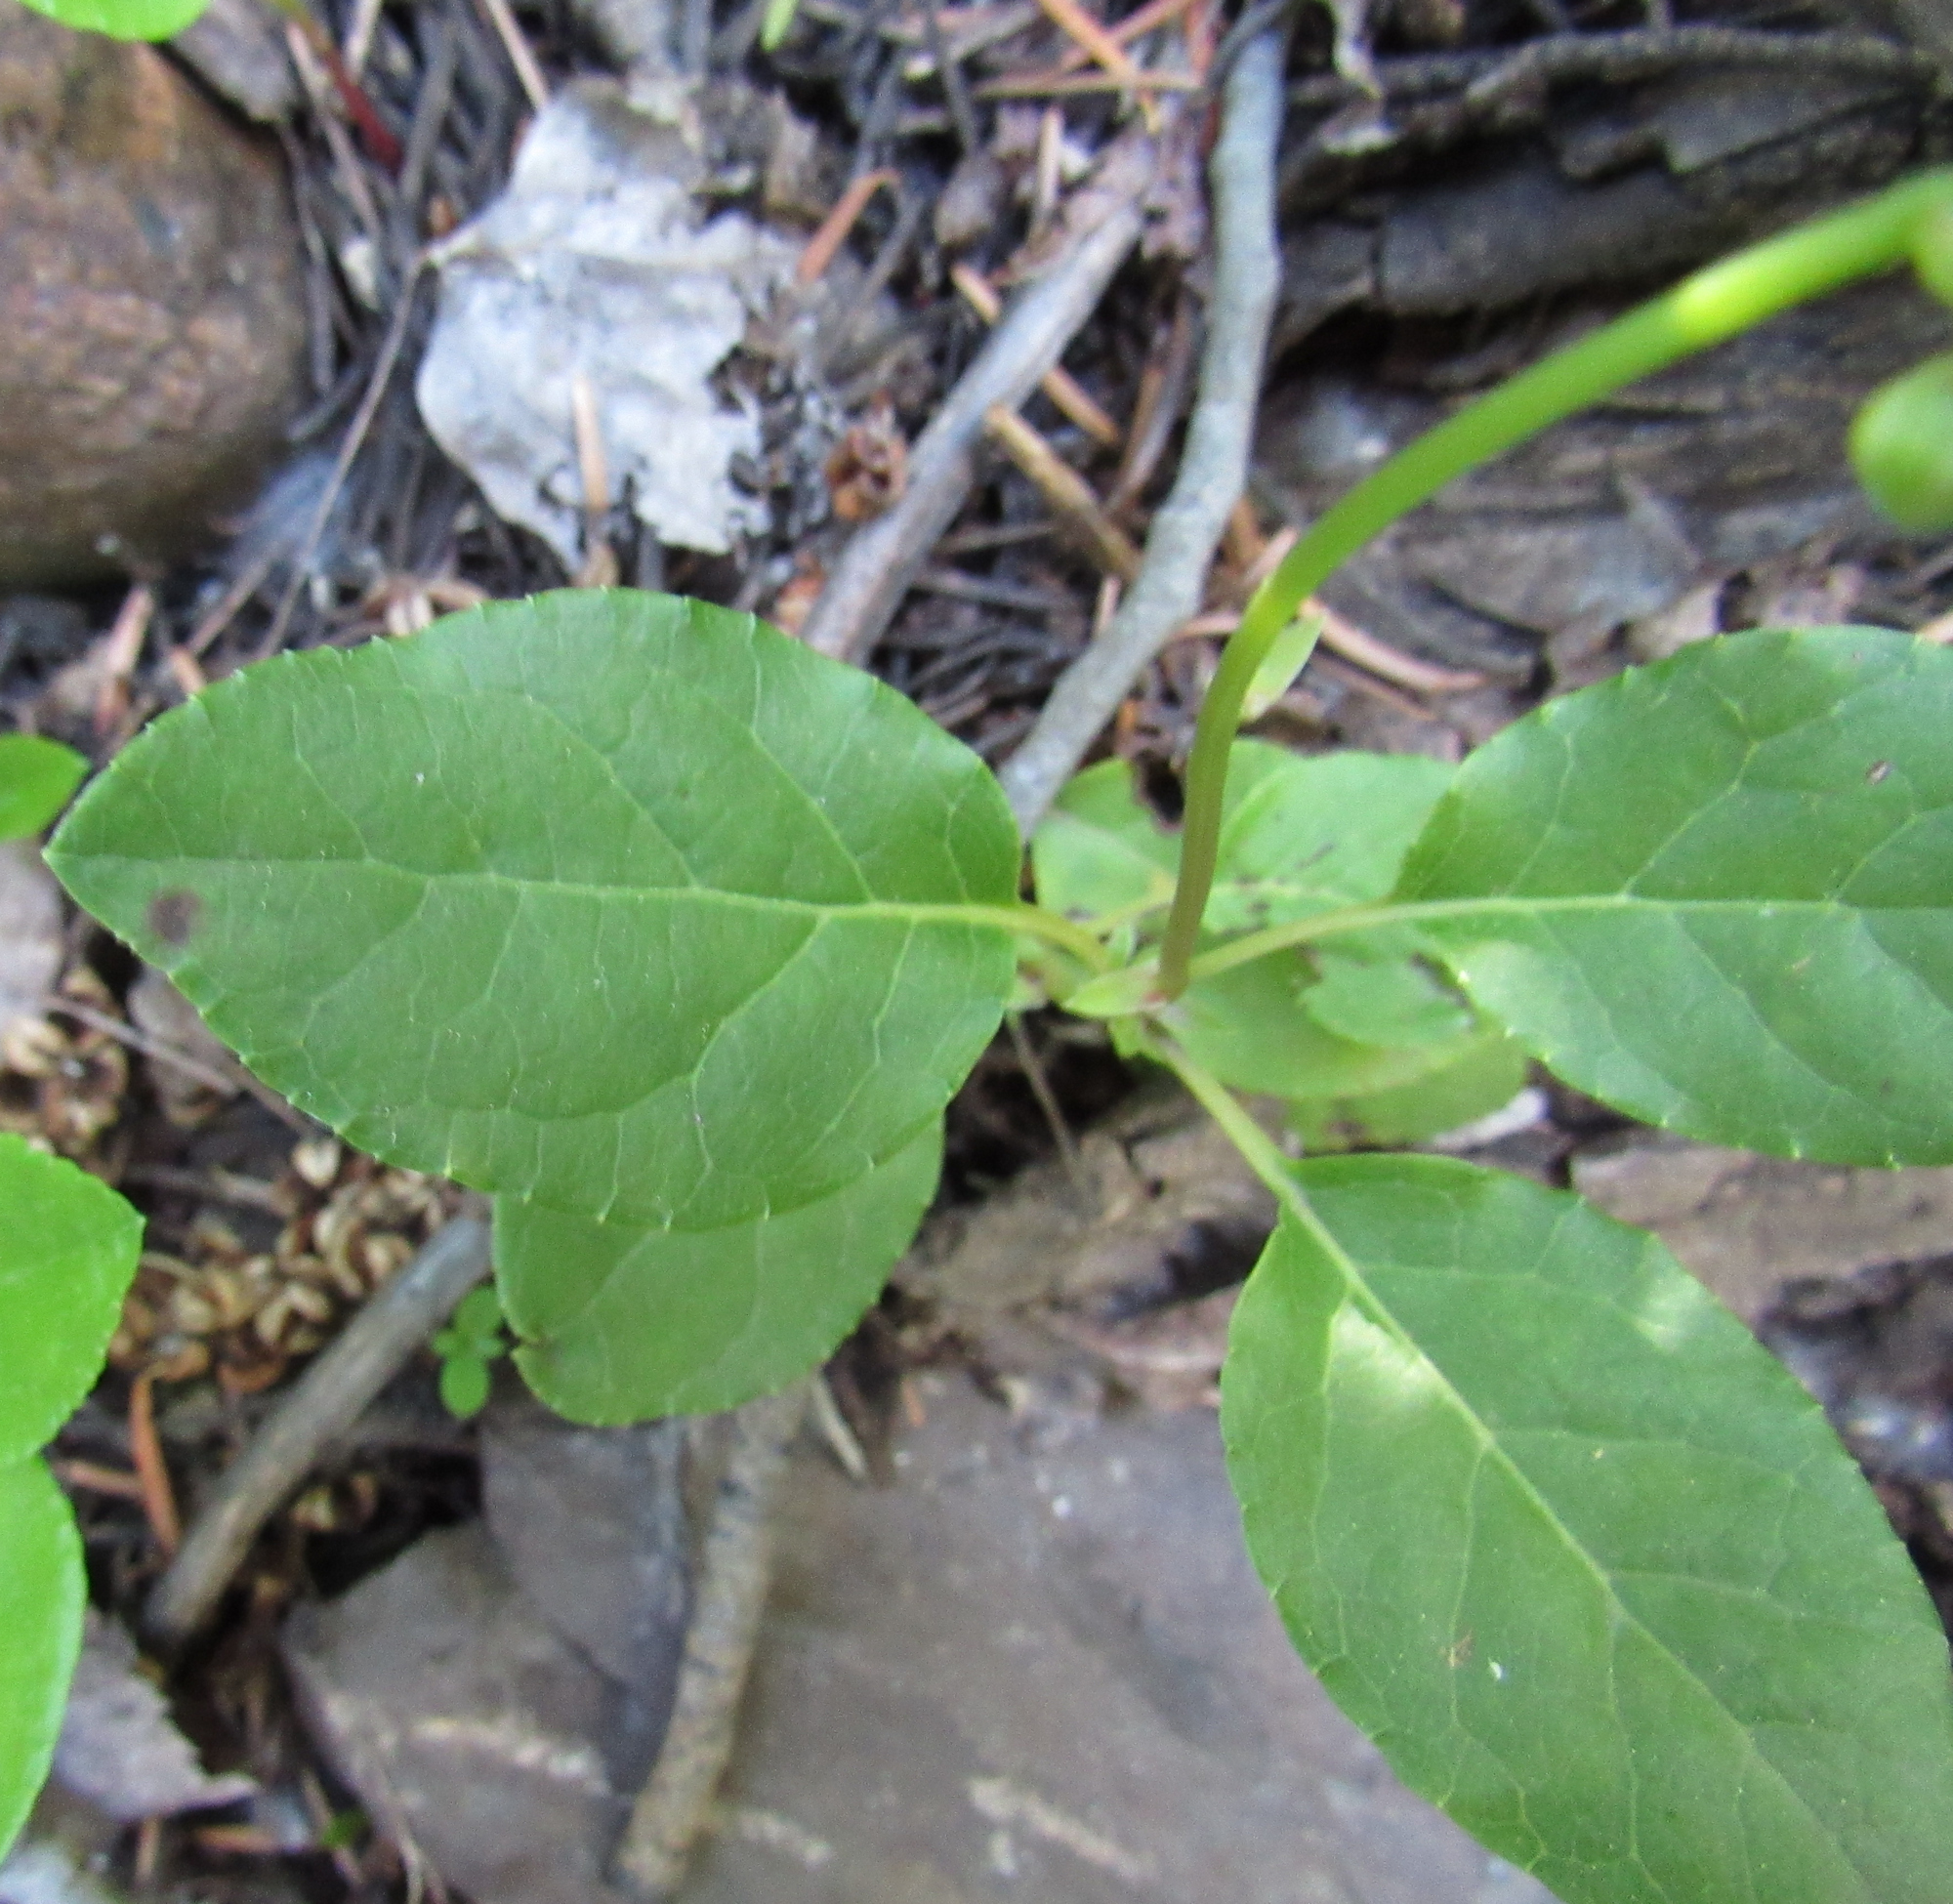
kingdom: Plantae
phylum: Tracheophyta
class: Magnoliopsida
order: Ericales
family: Ericaceae
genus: Orthilia
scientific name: Orthilia secunda
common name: One-sided orthilia
